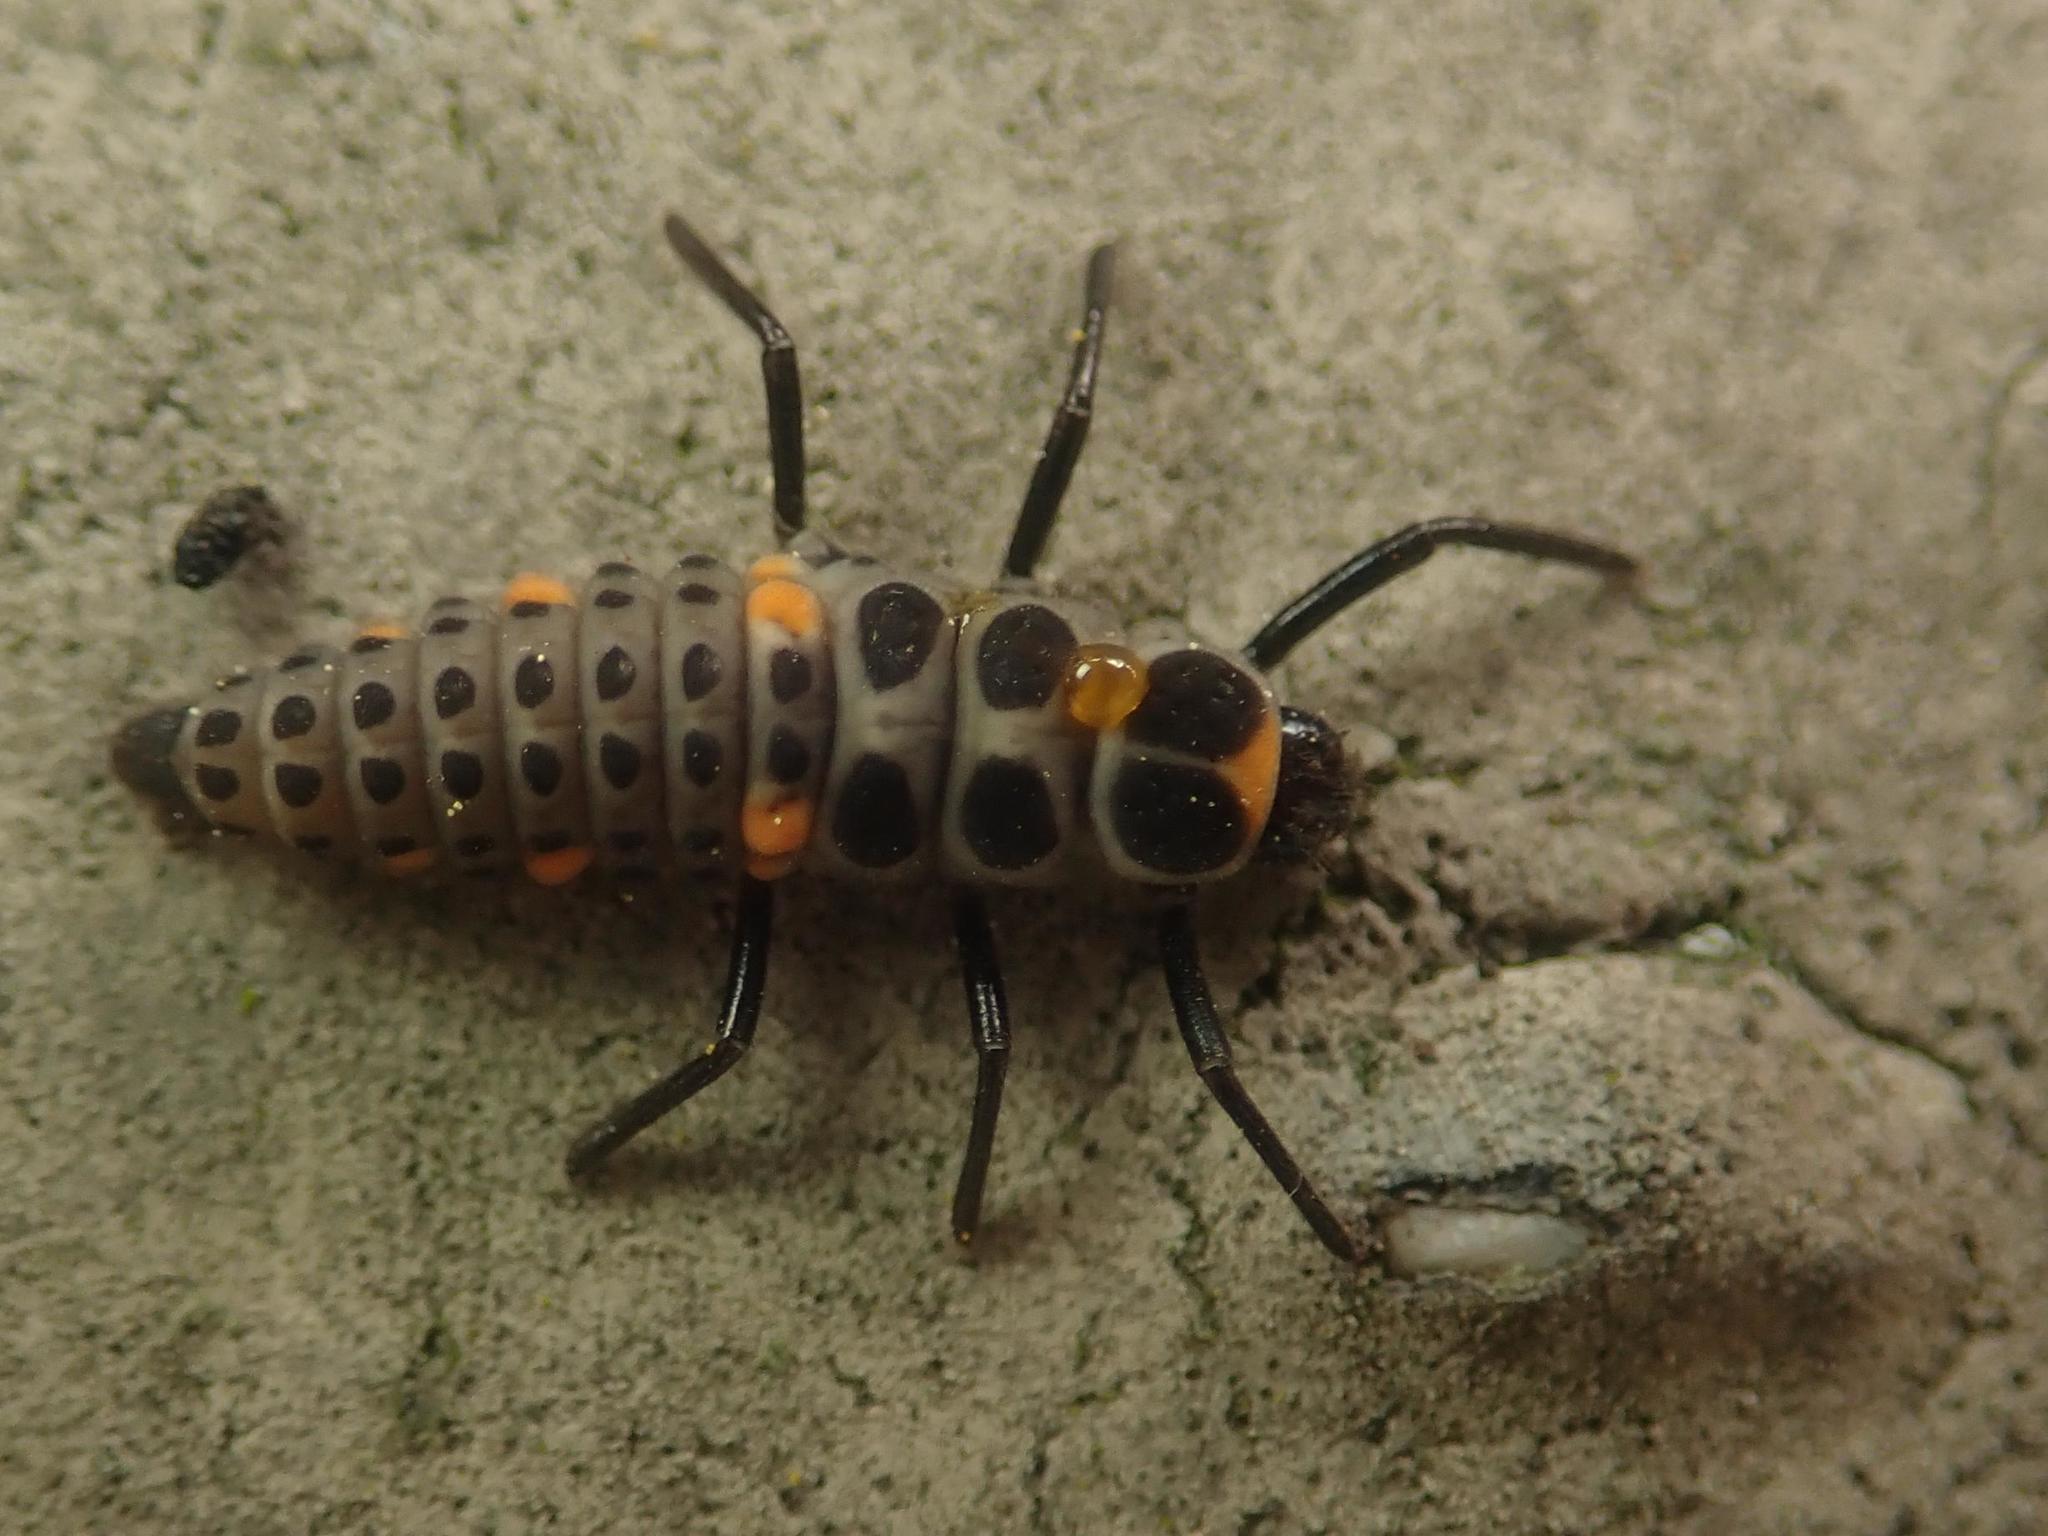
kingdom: Animalia
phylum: Arthropoda
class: Insecta
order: Coleoptera
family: Coccinellidae
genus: Myzia
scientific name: Myzia oblongoguttata
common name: Striped ladybird
